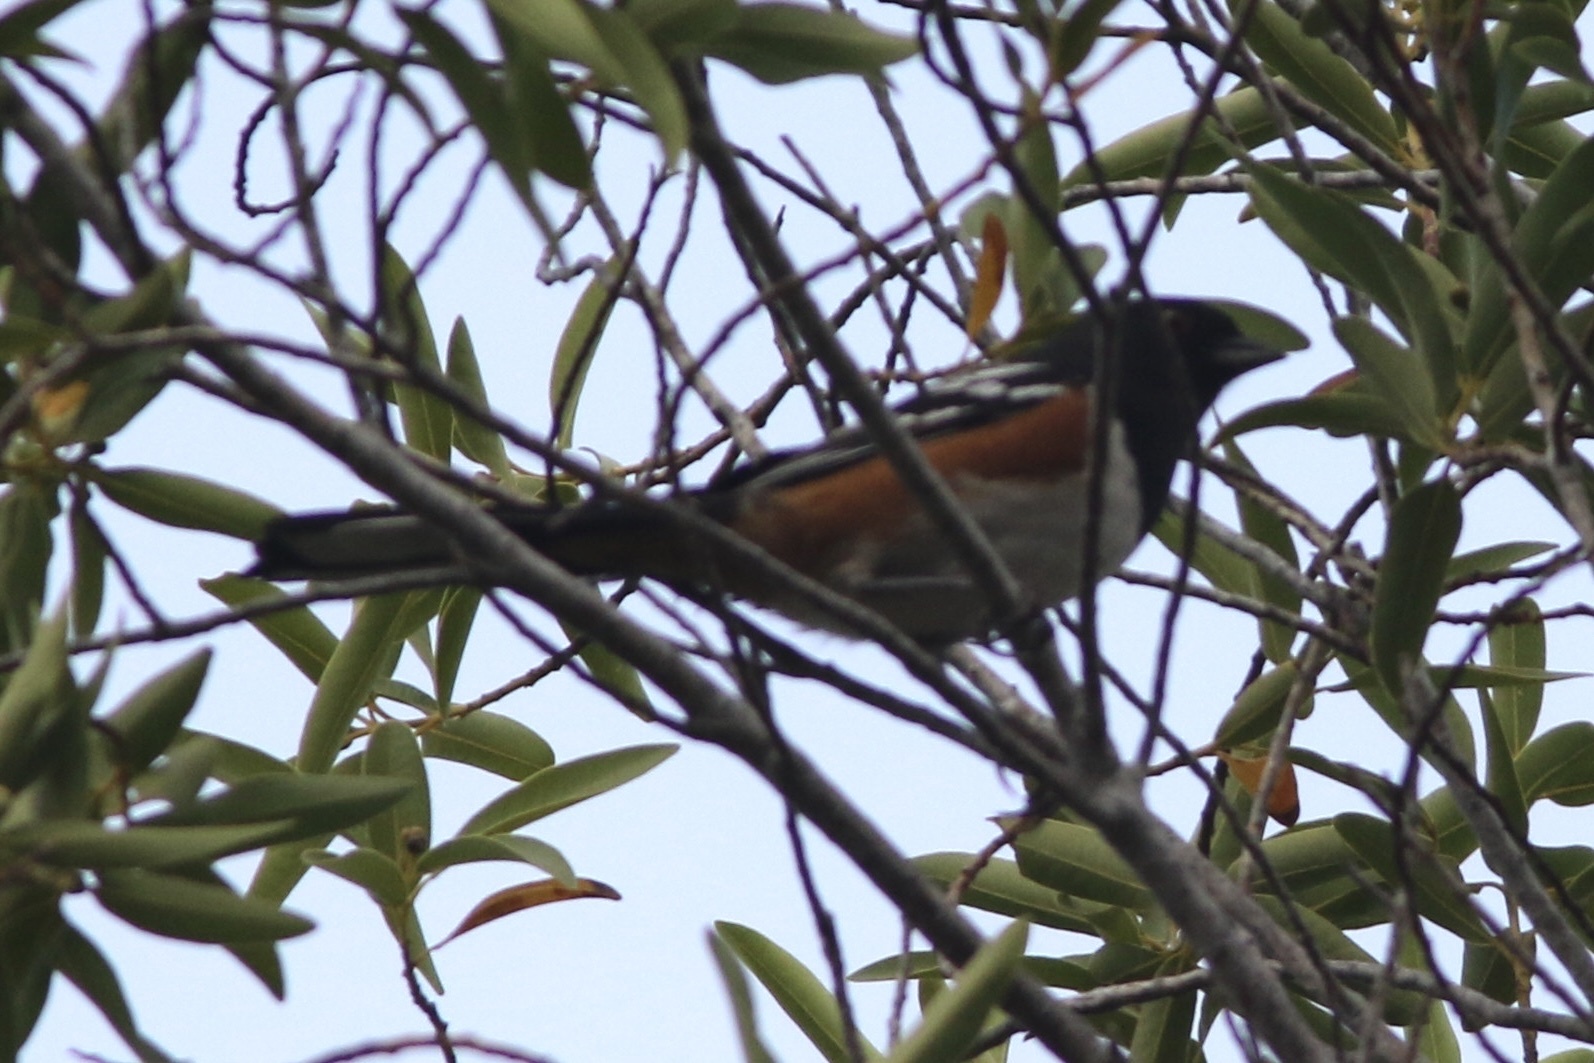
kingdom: Animalia
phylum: Chordata
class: Aves
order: Passeriformes
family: Passerellidae
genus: Pipilo
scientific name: Pipilo maculatus
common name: Spotted towhee
